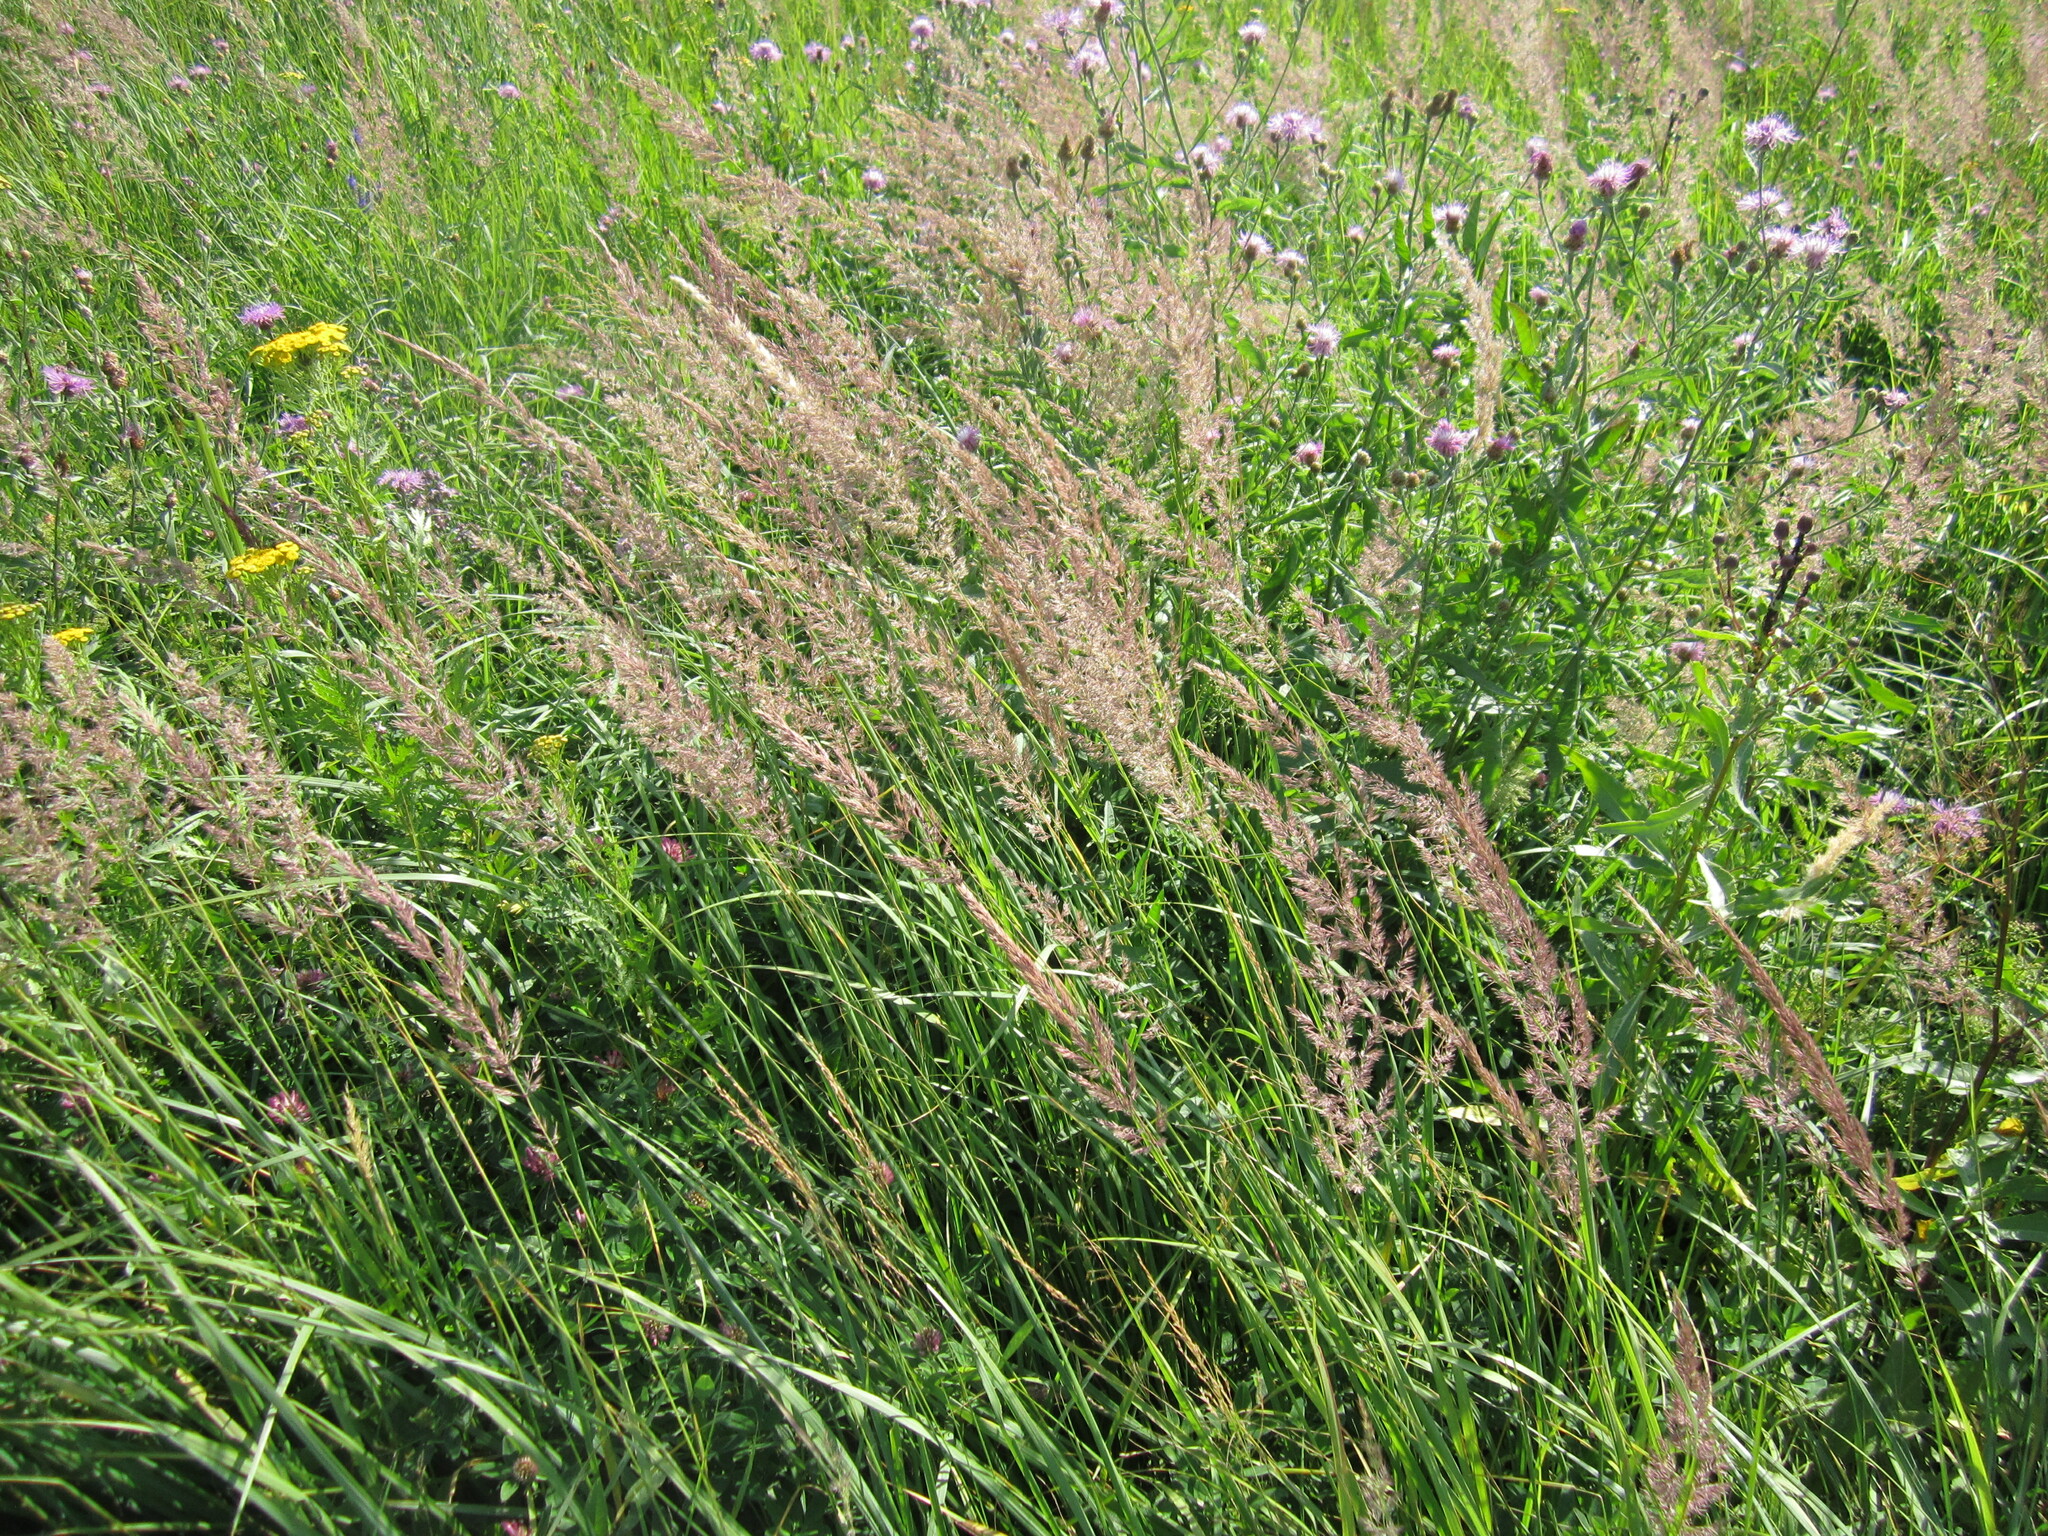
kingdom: Plantae
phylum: Tracheophyta
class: Liliopsida
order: Poales
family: Poaceae
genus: Calamagrostis
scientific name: Calamagrostis epigejos
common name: Wood small-reed
